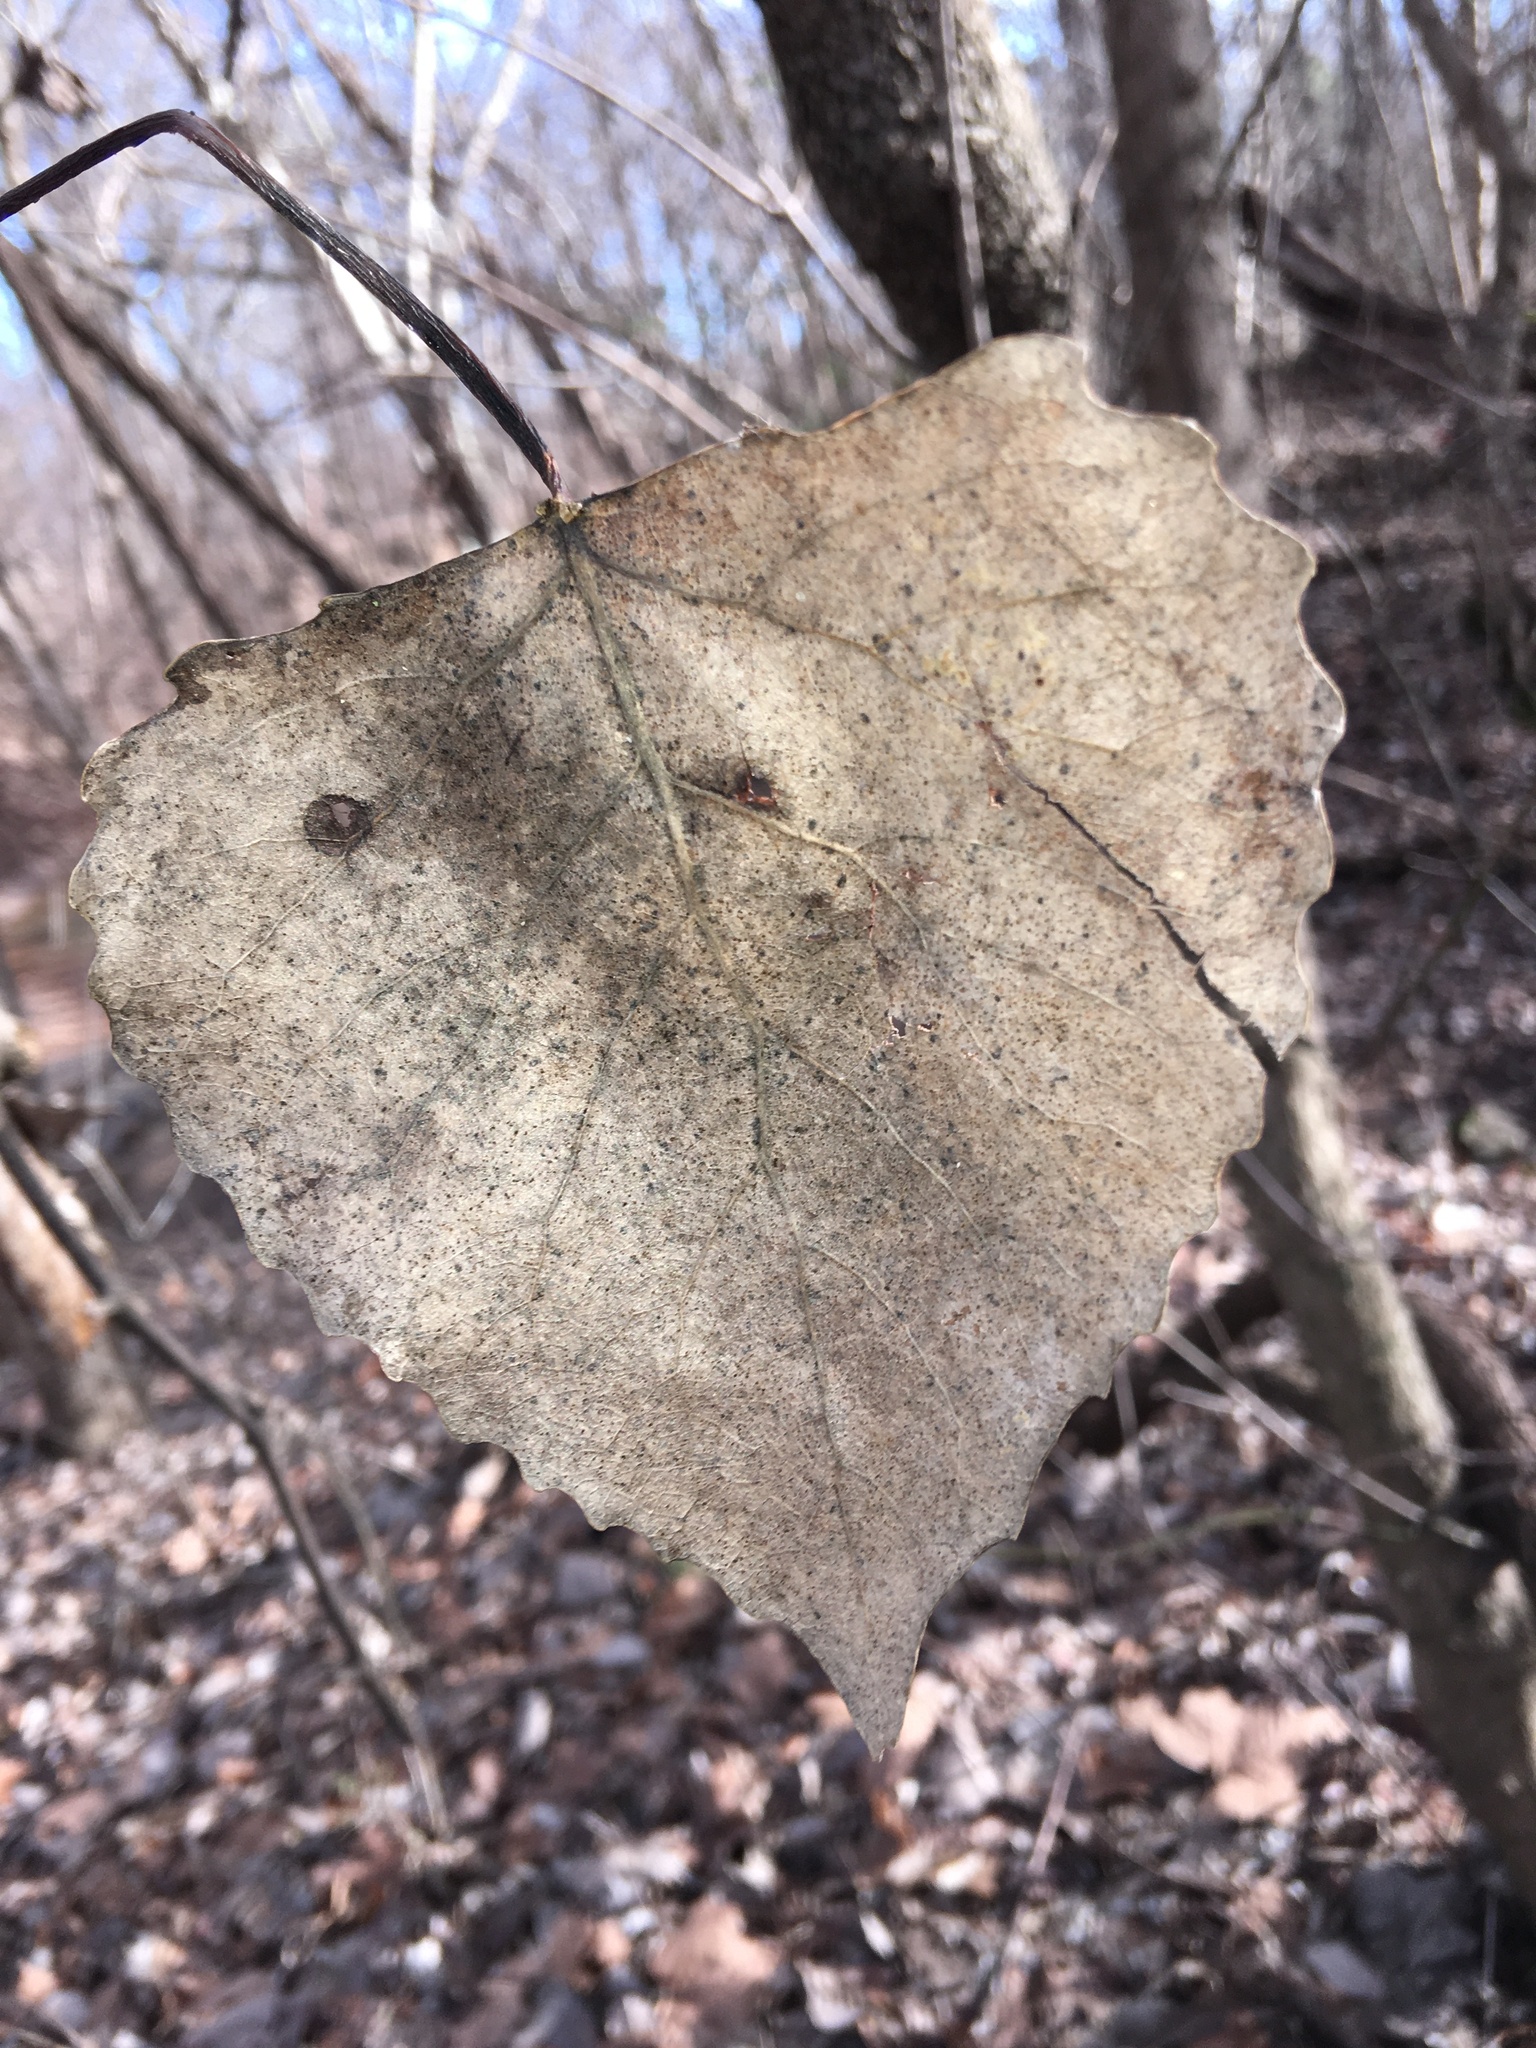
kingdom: Plantae
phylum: Tracheophyta
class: Magnoliopsida
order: Malpighiales
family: Salicaceae
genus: Populus
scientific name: Populus deltoides
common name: Eastern cottonwood
